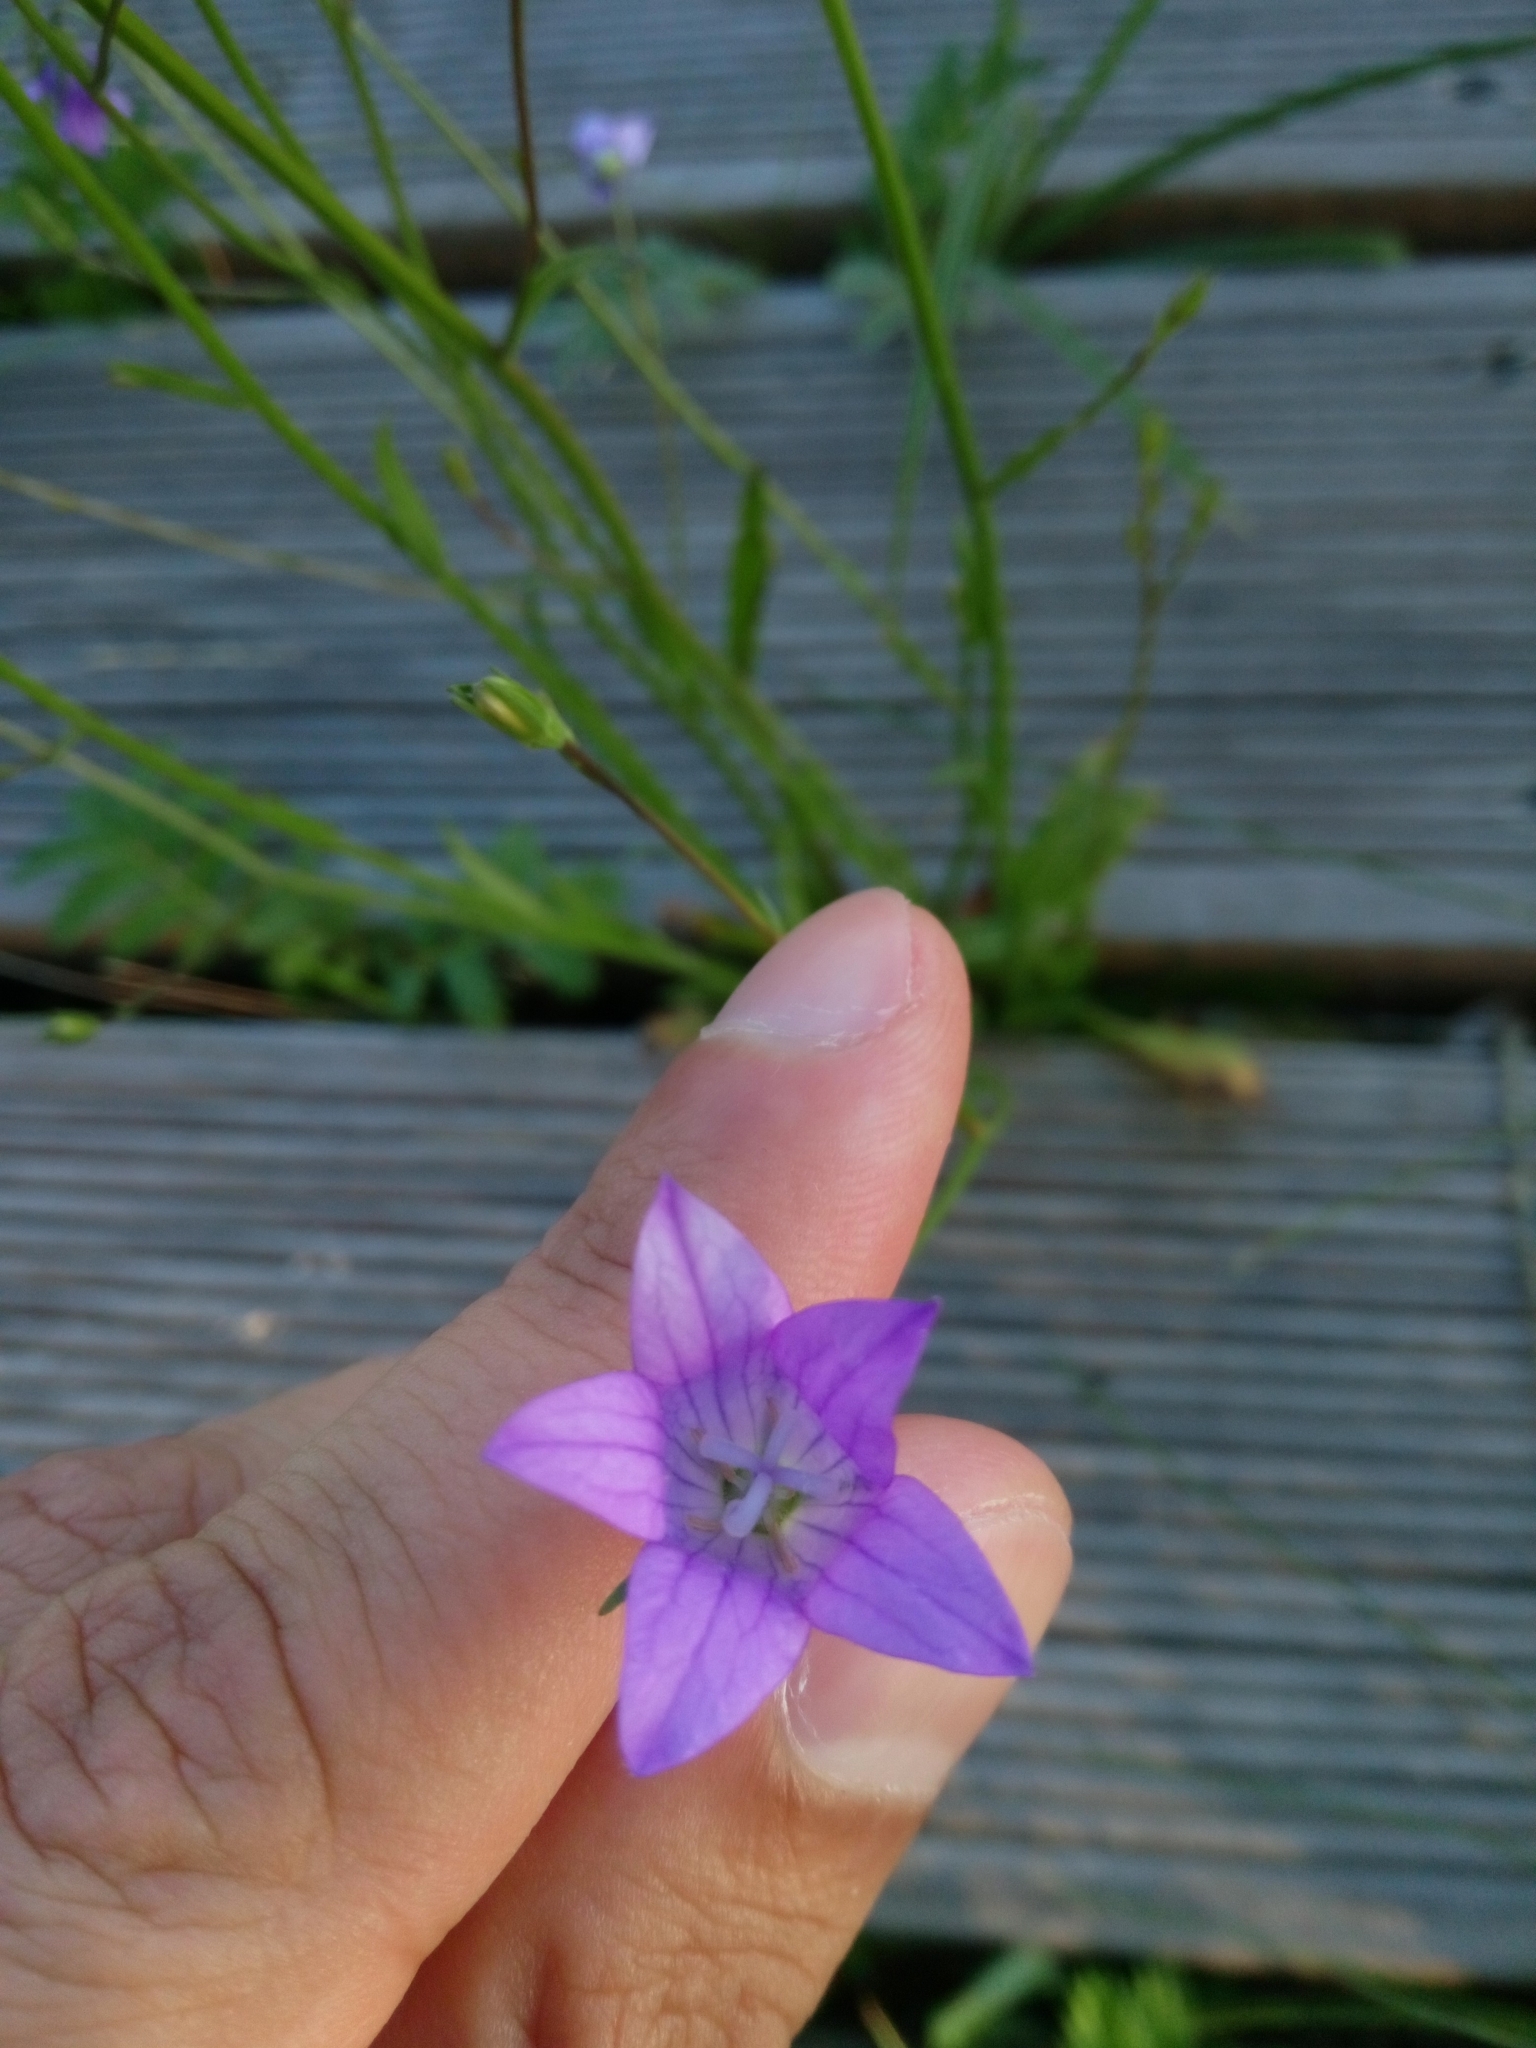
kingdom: Plantae
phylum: Tracheophyta
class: Magnoliopsida
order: Asterales
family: Campanulaceae
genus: Campanula
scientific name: Campanula patula
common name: Spreading bellflower
